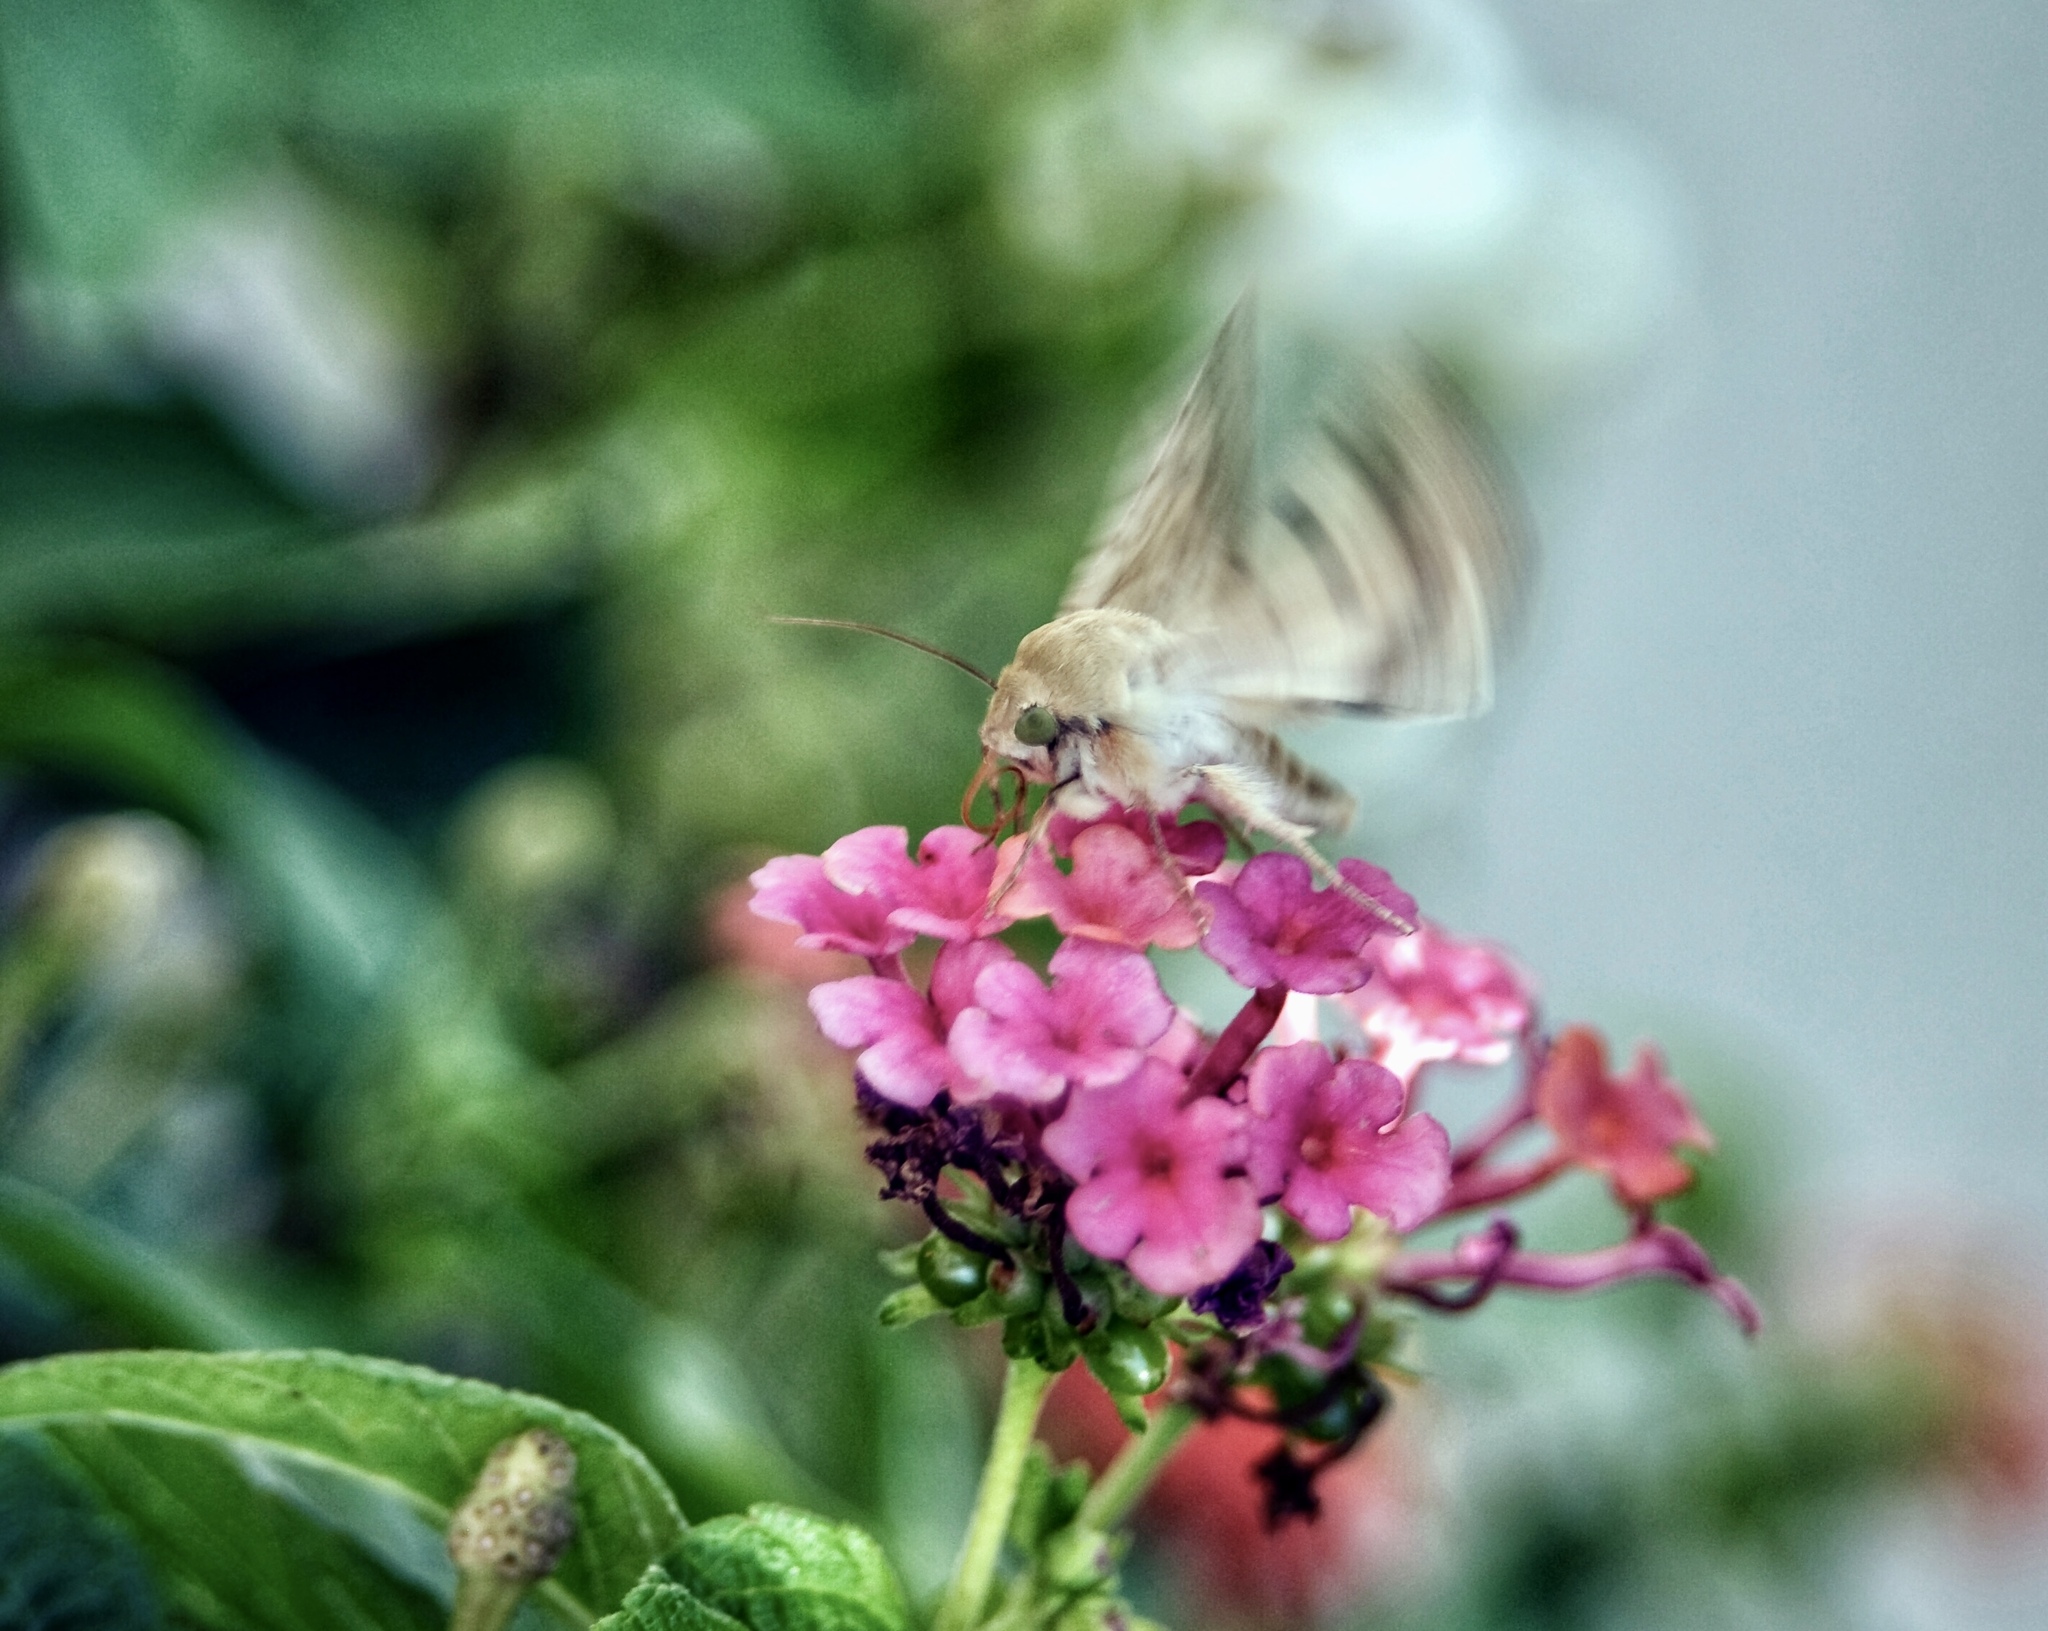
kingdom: Animalia
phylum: Arthropoda
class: Insecta
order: Lepidoptera
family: Noctuidae
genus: Helicoverpa
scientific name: Helicoverpa zea
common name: Bollworm
